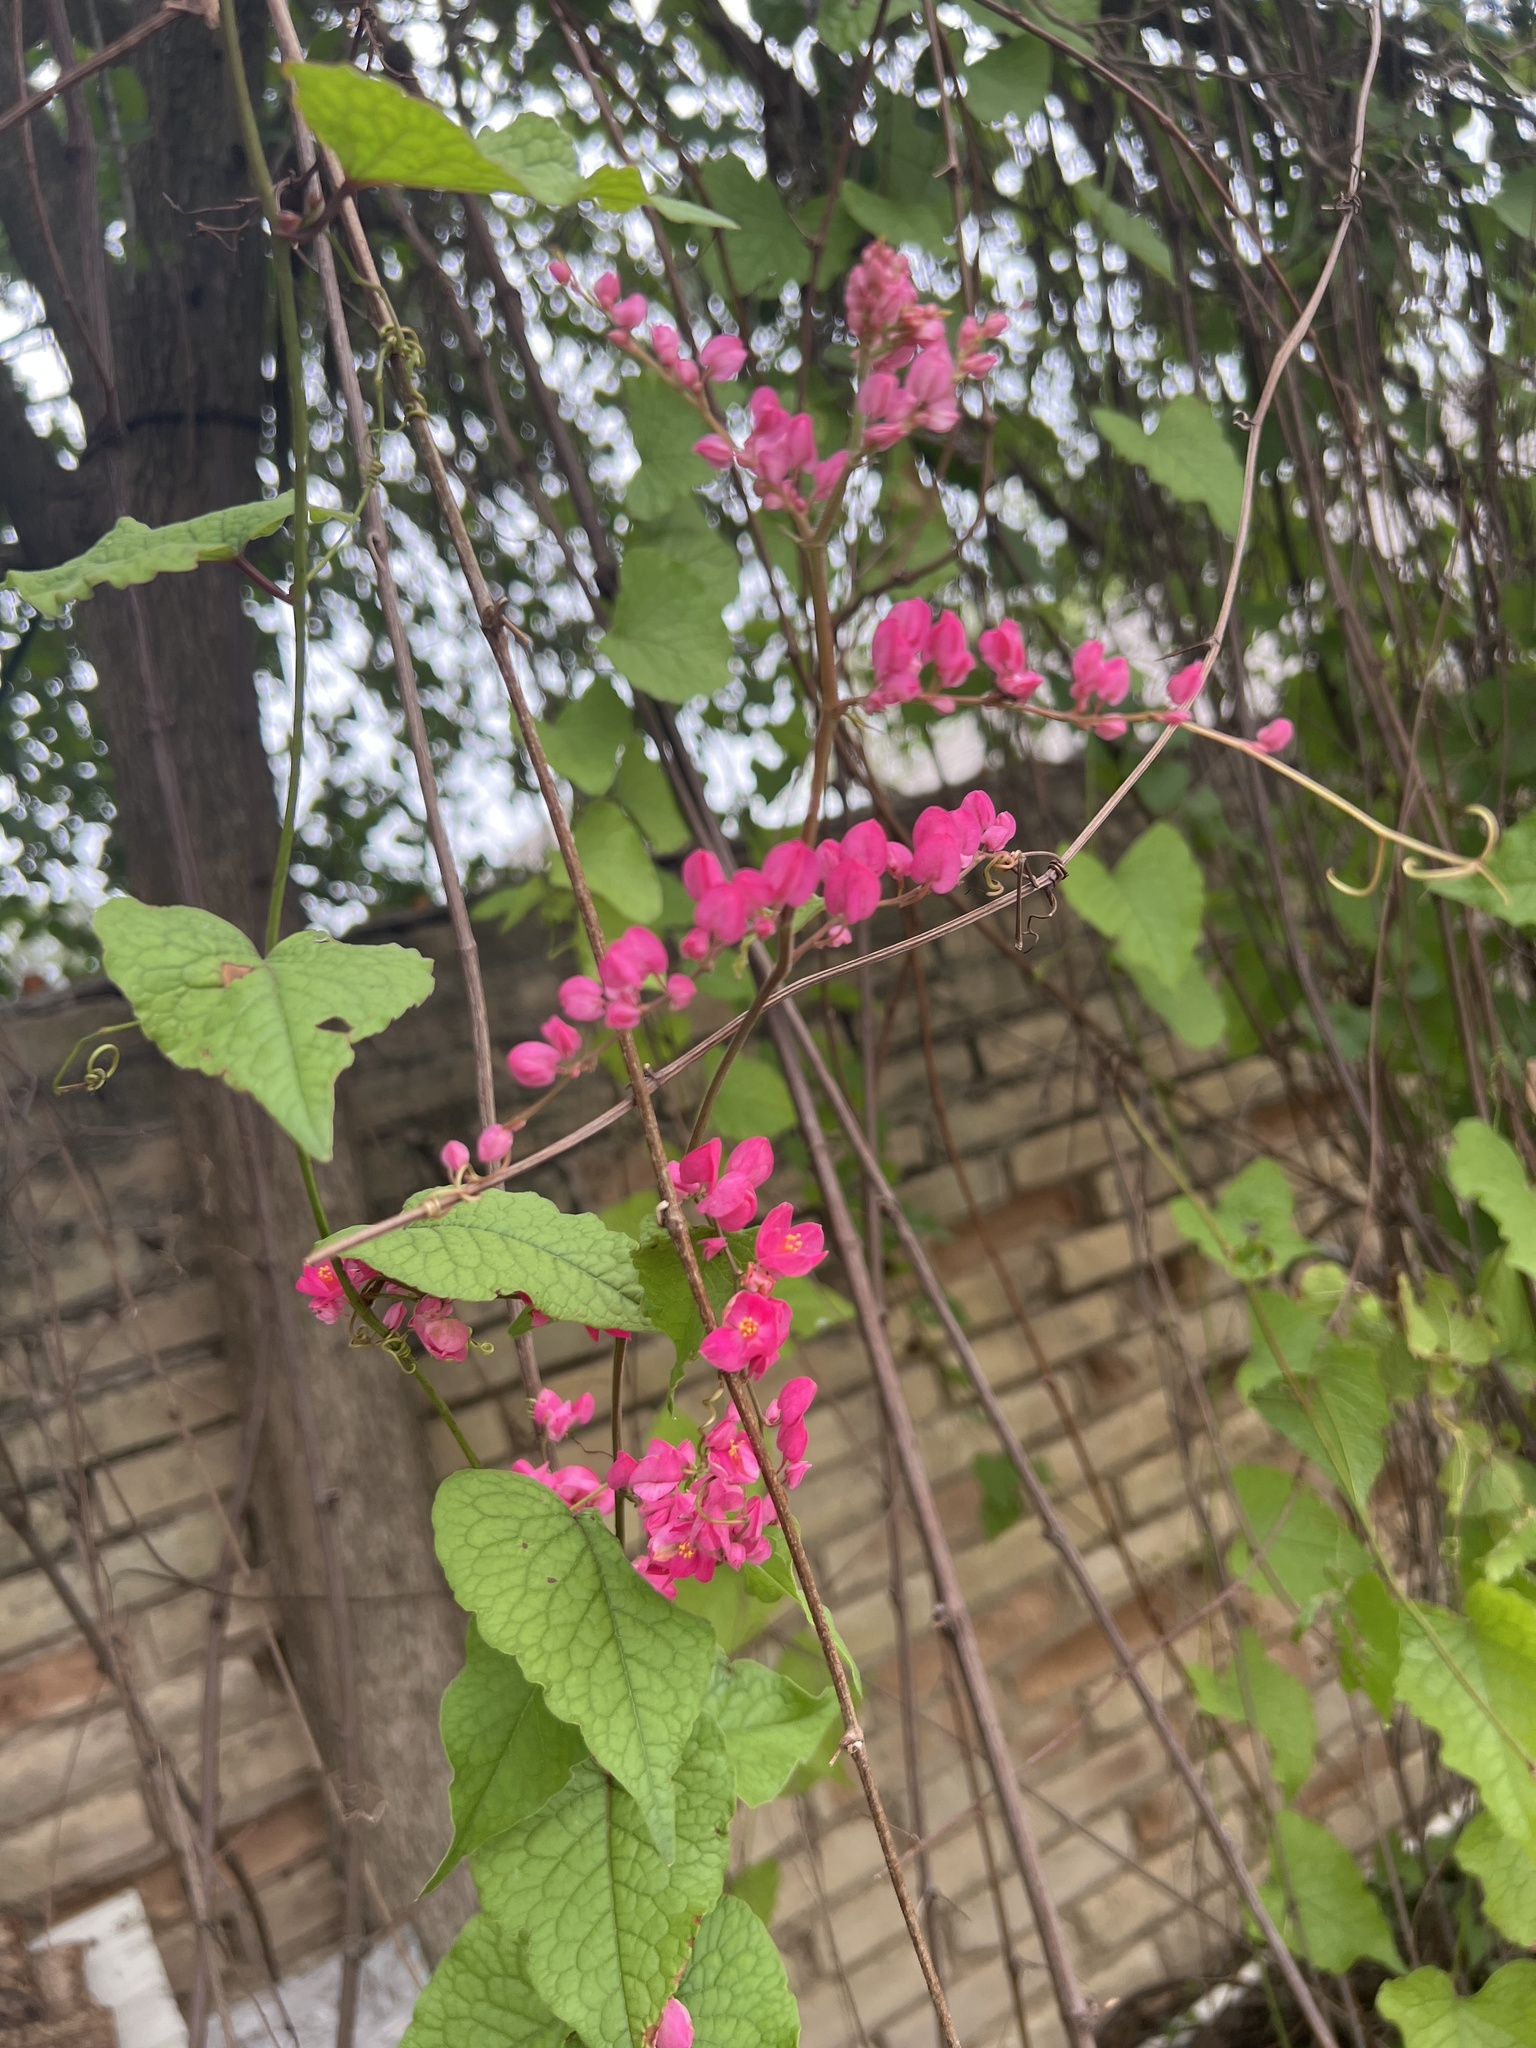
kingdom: Plantae
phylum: Tracheophyta
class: Magnoliopsida
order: Caryophyllales
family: Polygonaceae
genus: Antigonon
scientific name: Antigonon leptopus
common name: Coral vine
